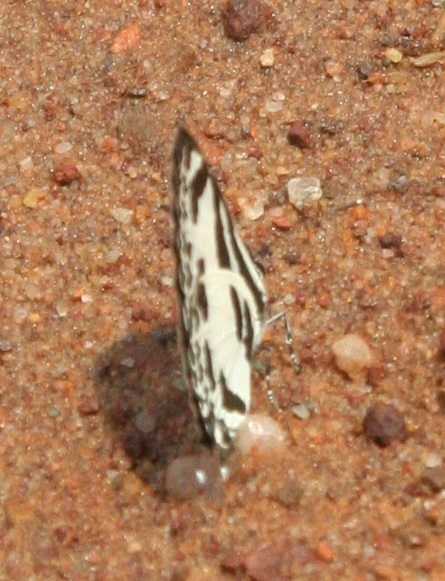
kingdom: Animalia
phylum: Arthropoda
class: Insecta
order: Lepidoptera
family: Lycaenidae
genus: Discolampa
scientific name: Discolampa ethion
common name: Banded blue pierrot
